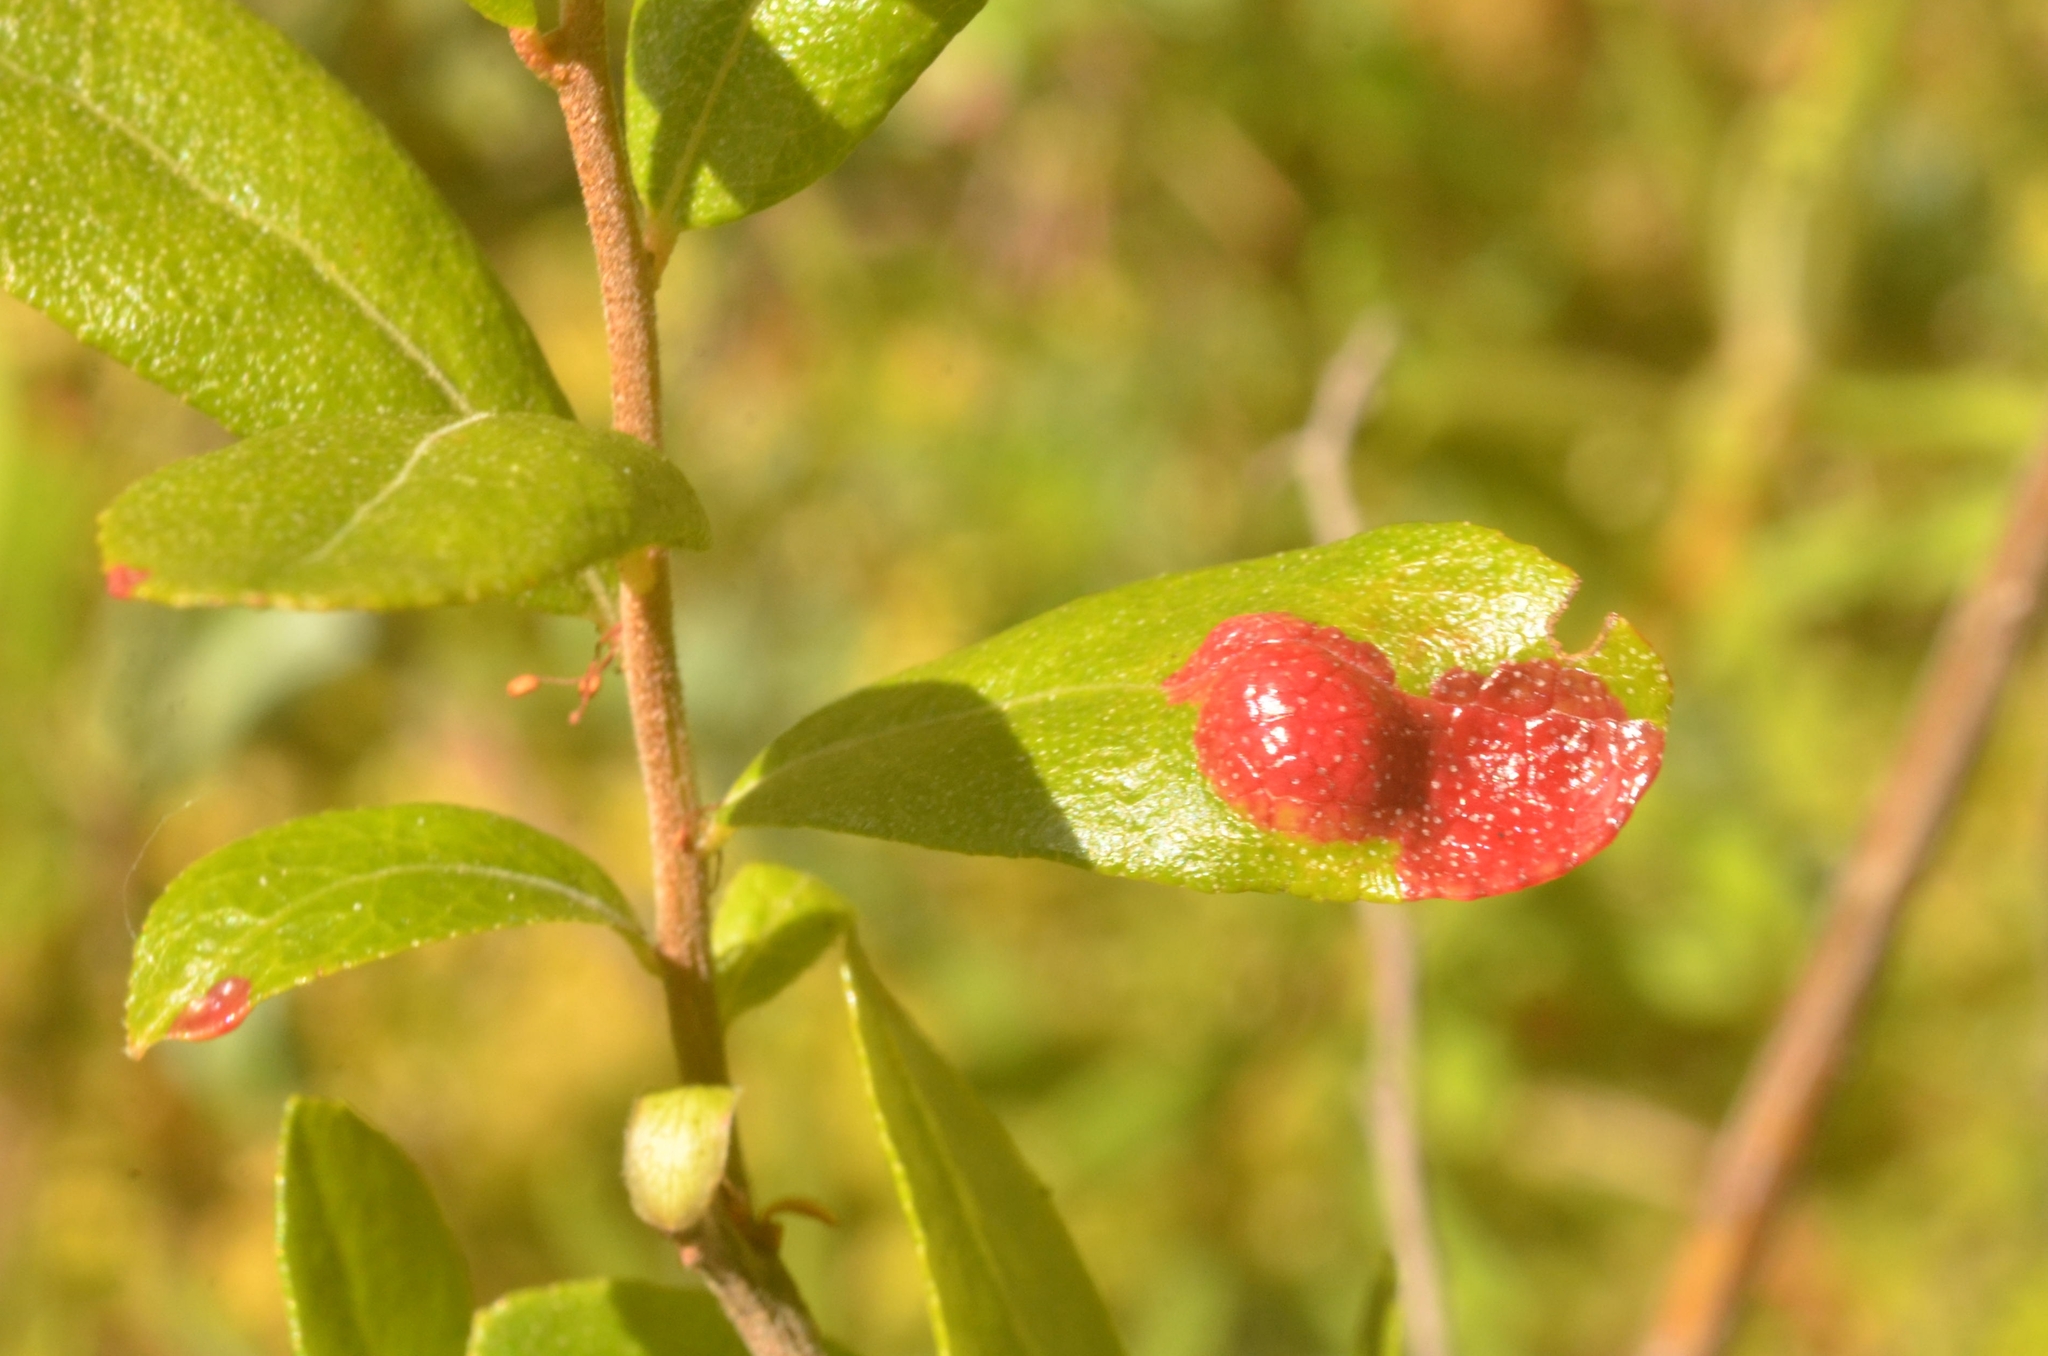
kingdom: Fungi
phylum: Basidiomycota
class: Exobasidiomycetes
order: Exobasidiales
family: Exobasidiaceae
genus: Exobasidium
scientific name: Exobasidium cassandrae
